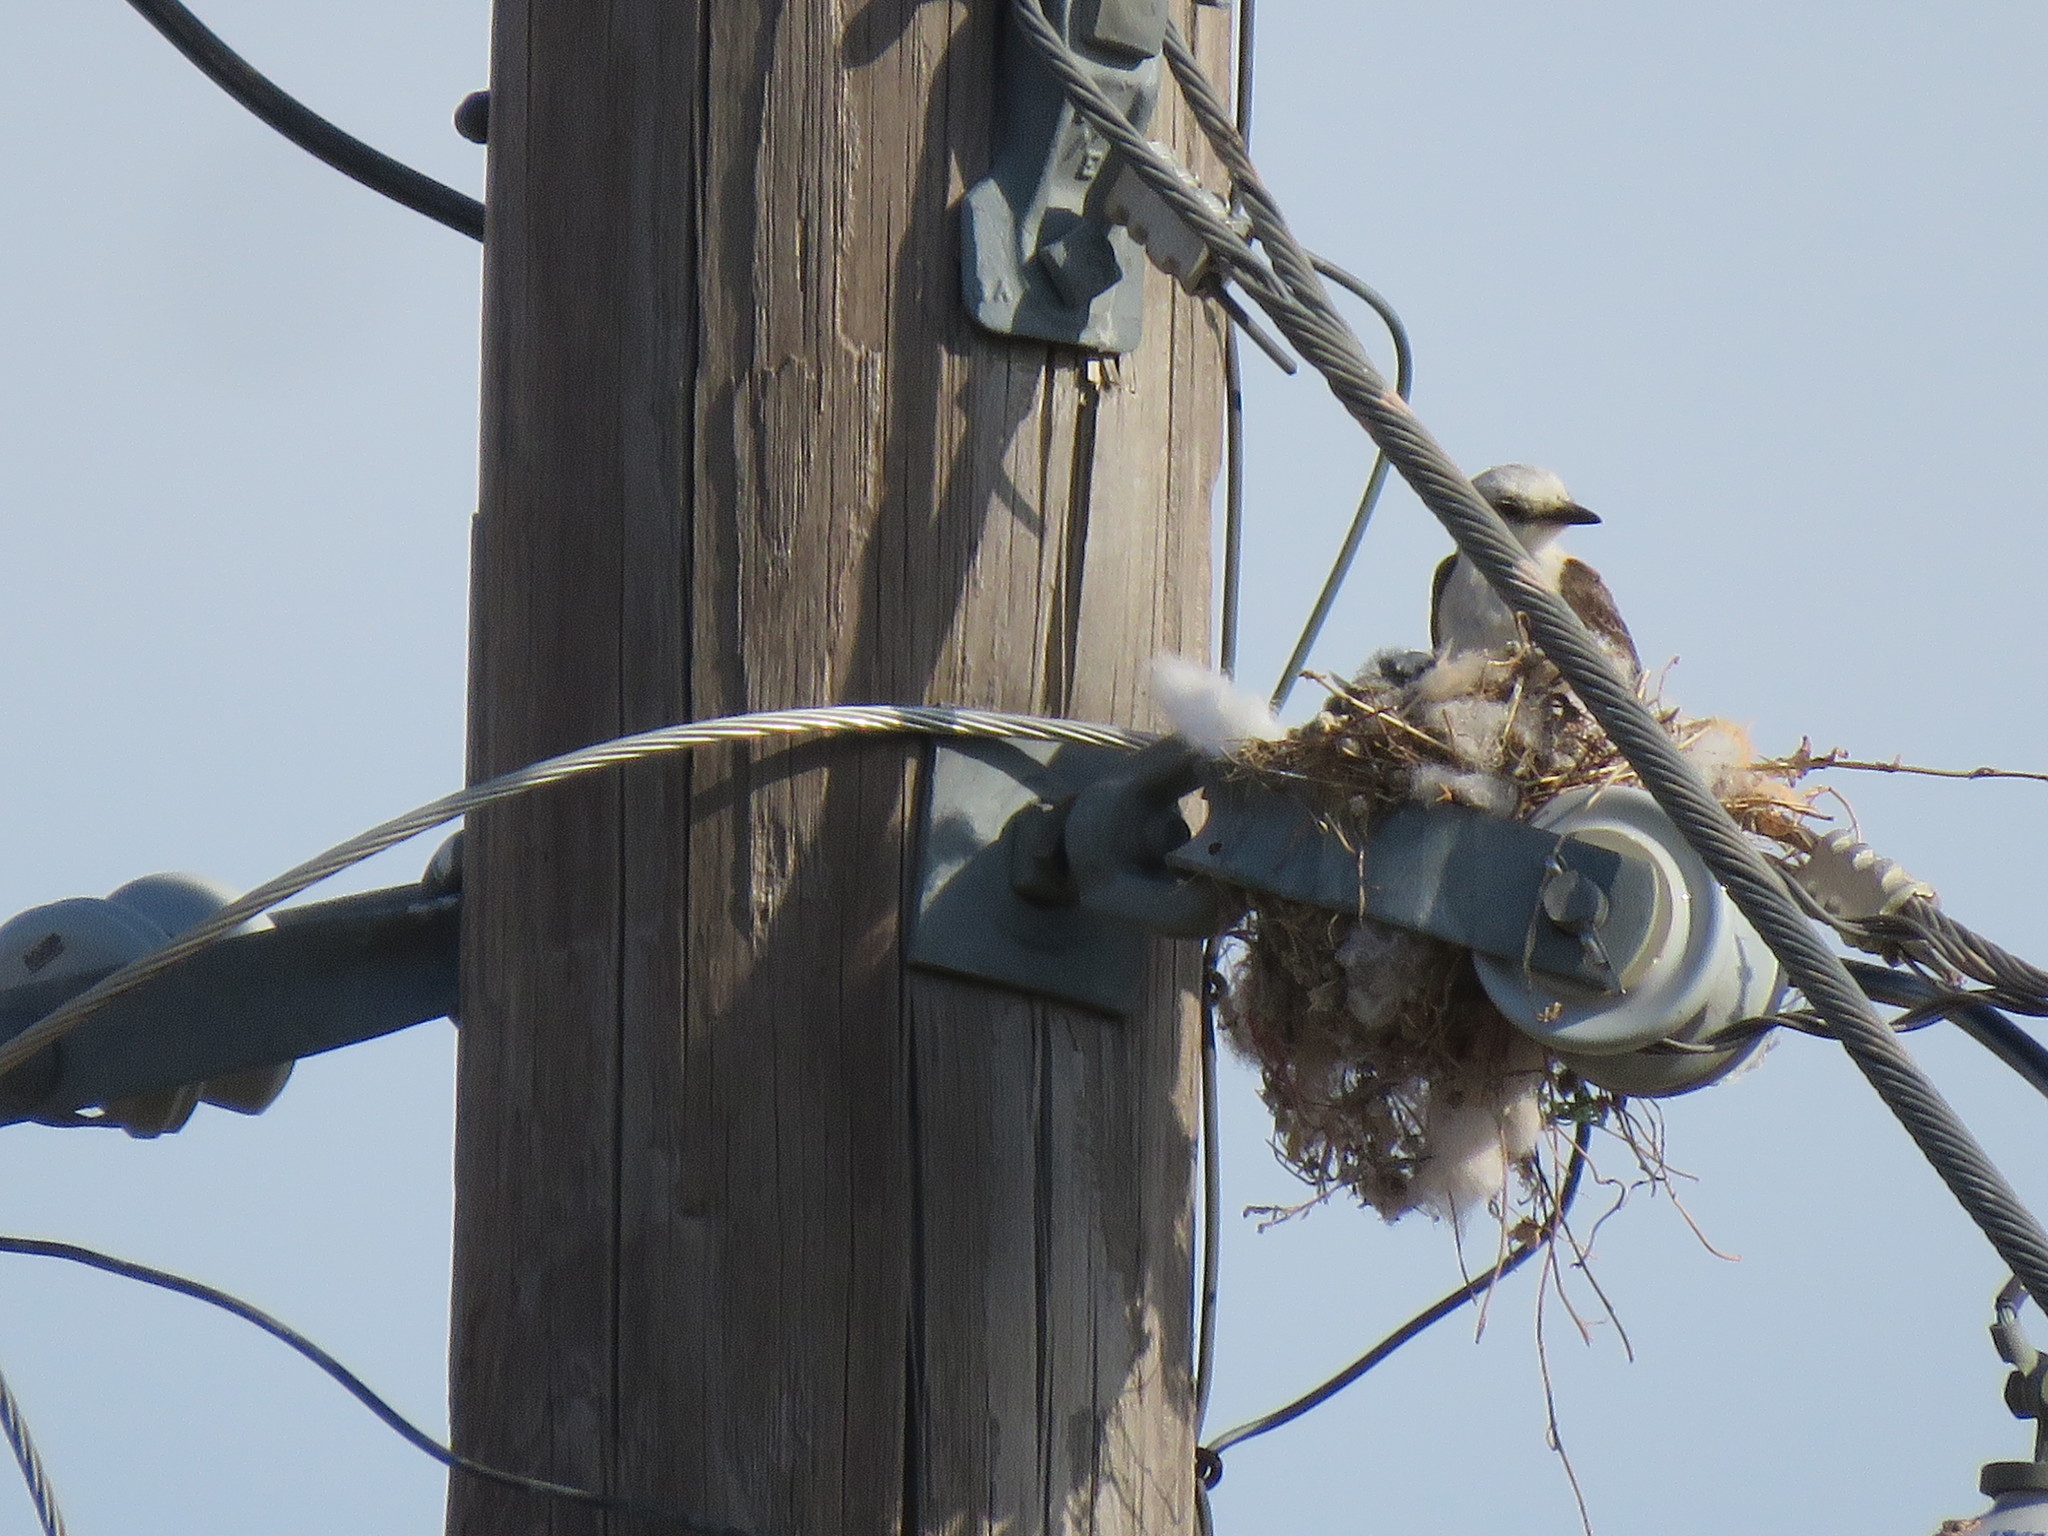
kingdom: Animalia
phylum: Chordata
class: Aves
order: Passeriformes
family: Tyrannidae
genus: Tyrannus
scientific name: Tyrannus forficatus
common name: Scissor-tailed flycatcher
